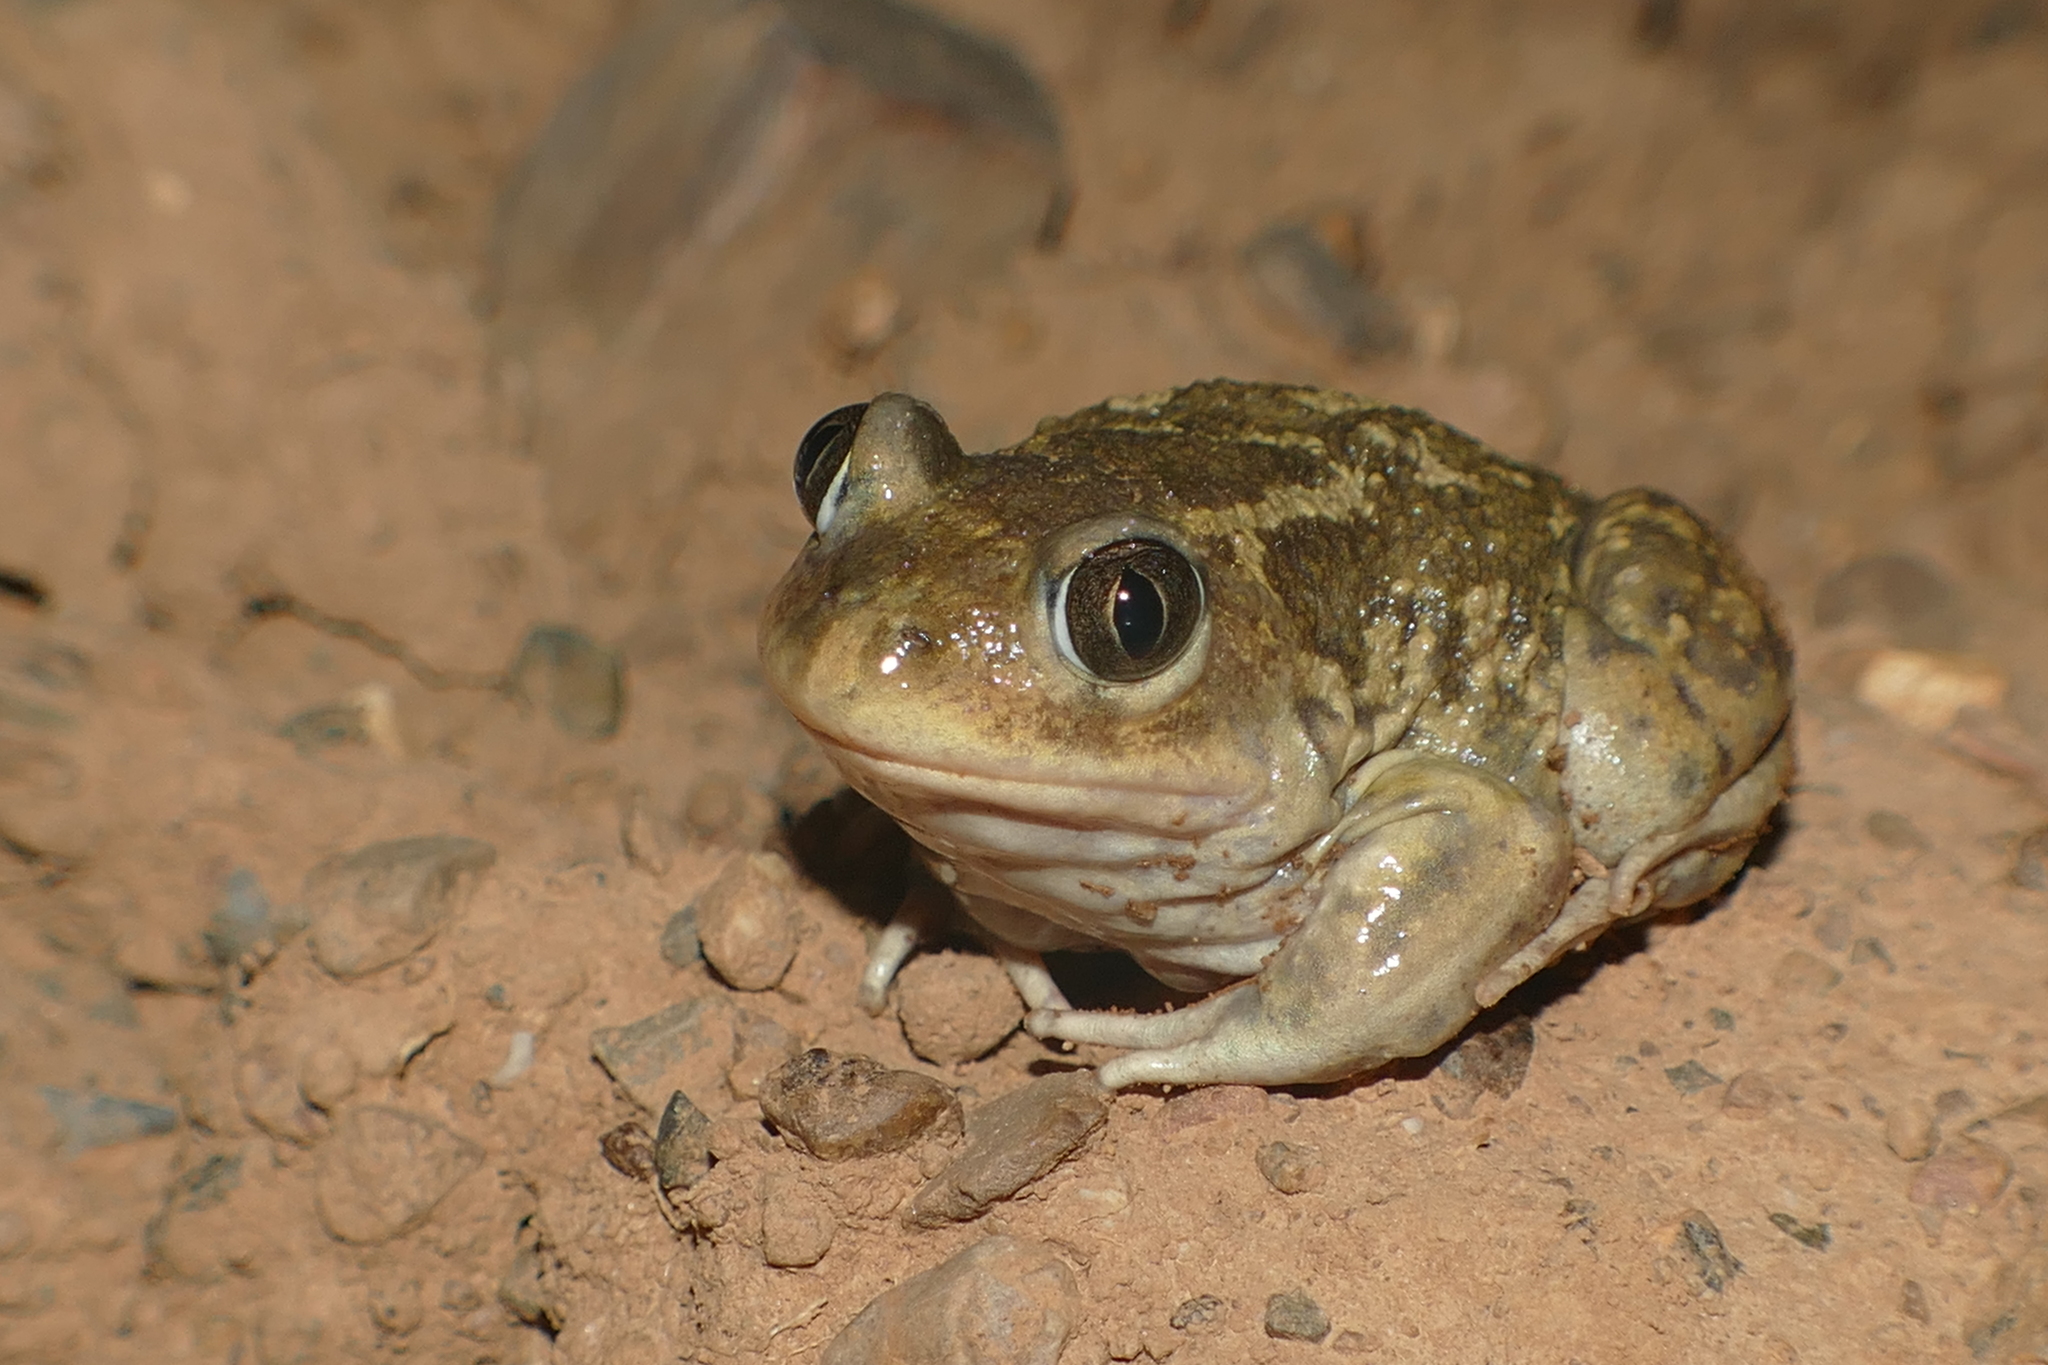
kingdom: Animalia
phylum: Chordata
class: Amphibia
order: Anura
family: Pelobatidae
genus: Pelobates
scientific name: Pelobates cultripes
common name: Western spadefoot
